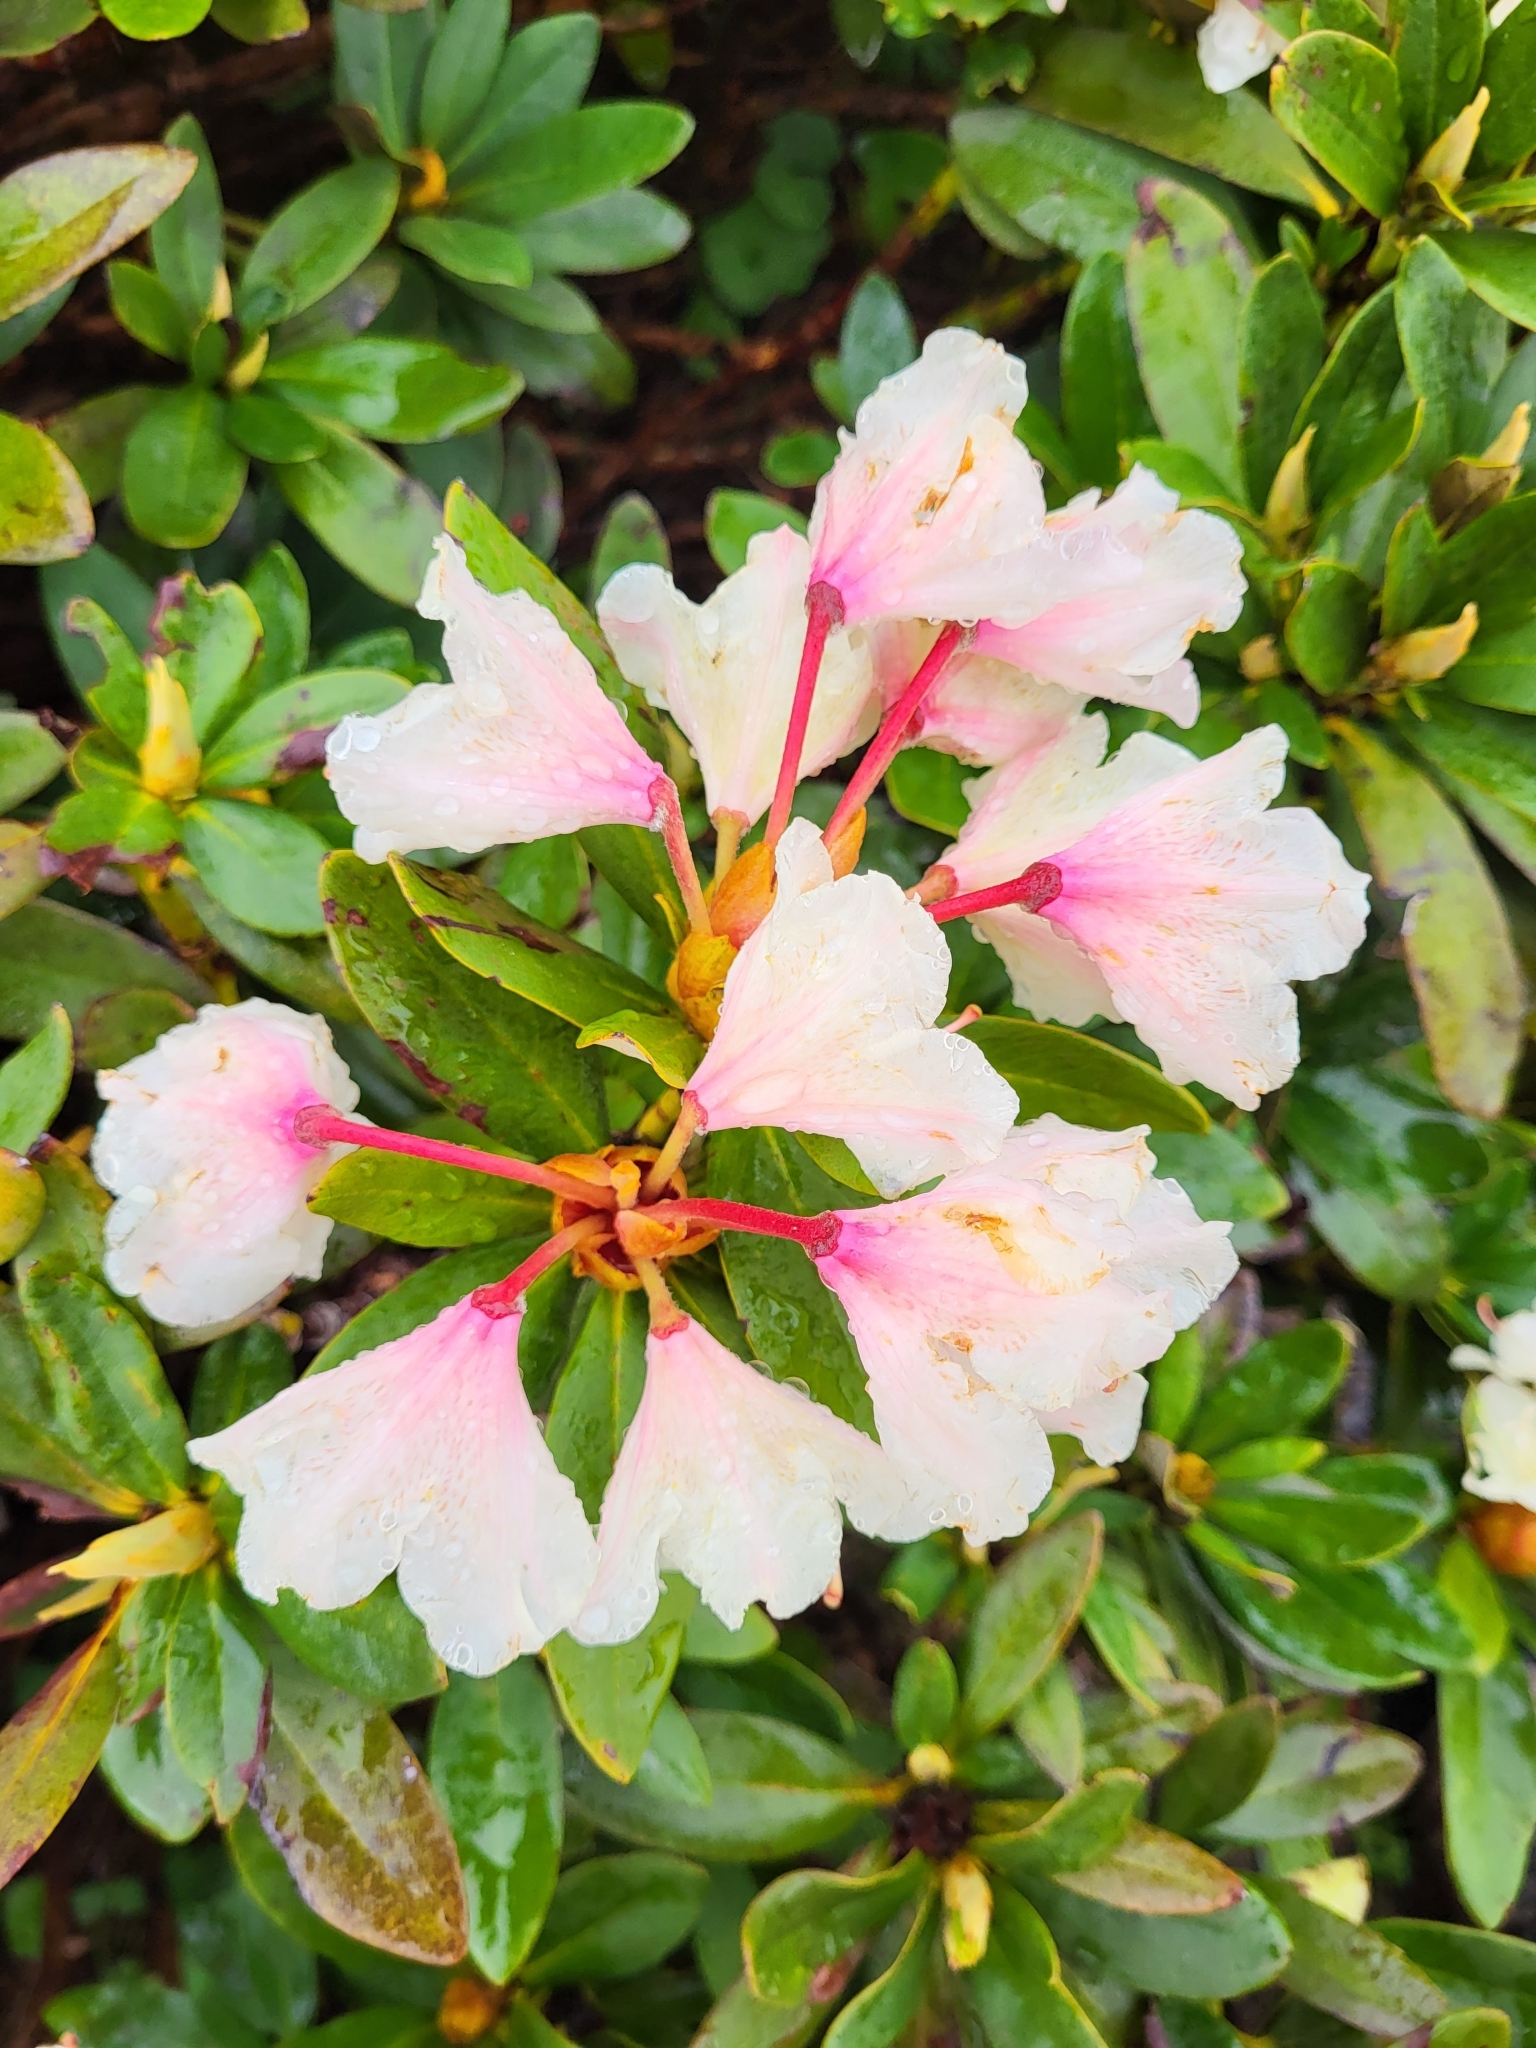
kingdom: Plantae
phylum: Tracheophyta
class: Magnoliopsida
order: Ericales
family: Ericaceae
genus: Rhododendron
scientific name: Rhododendron caucasicum
